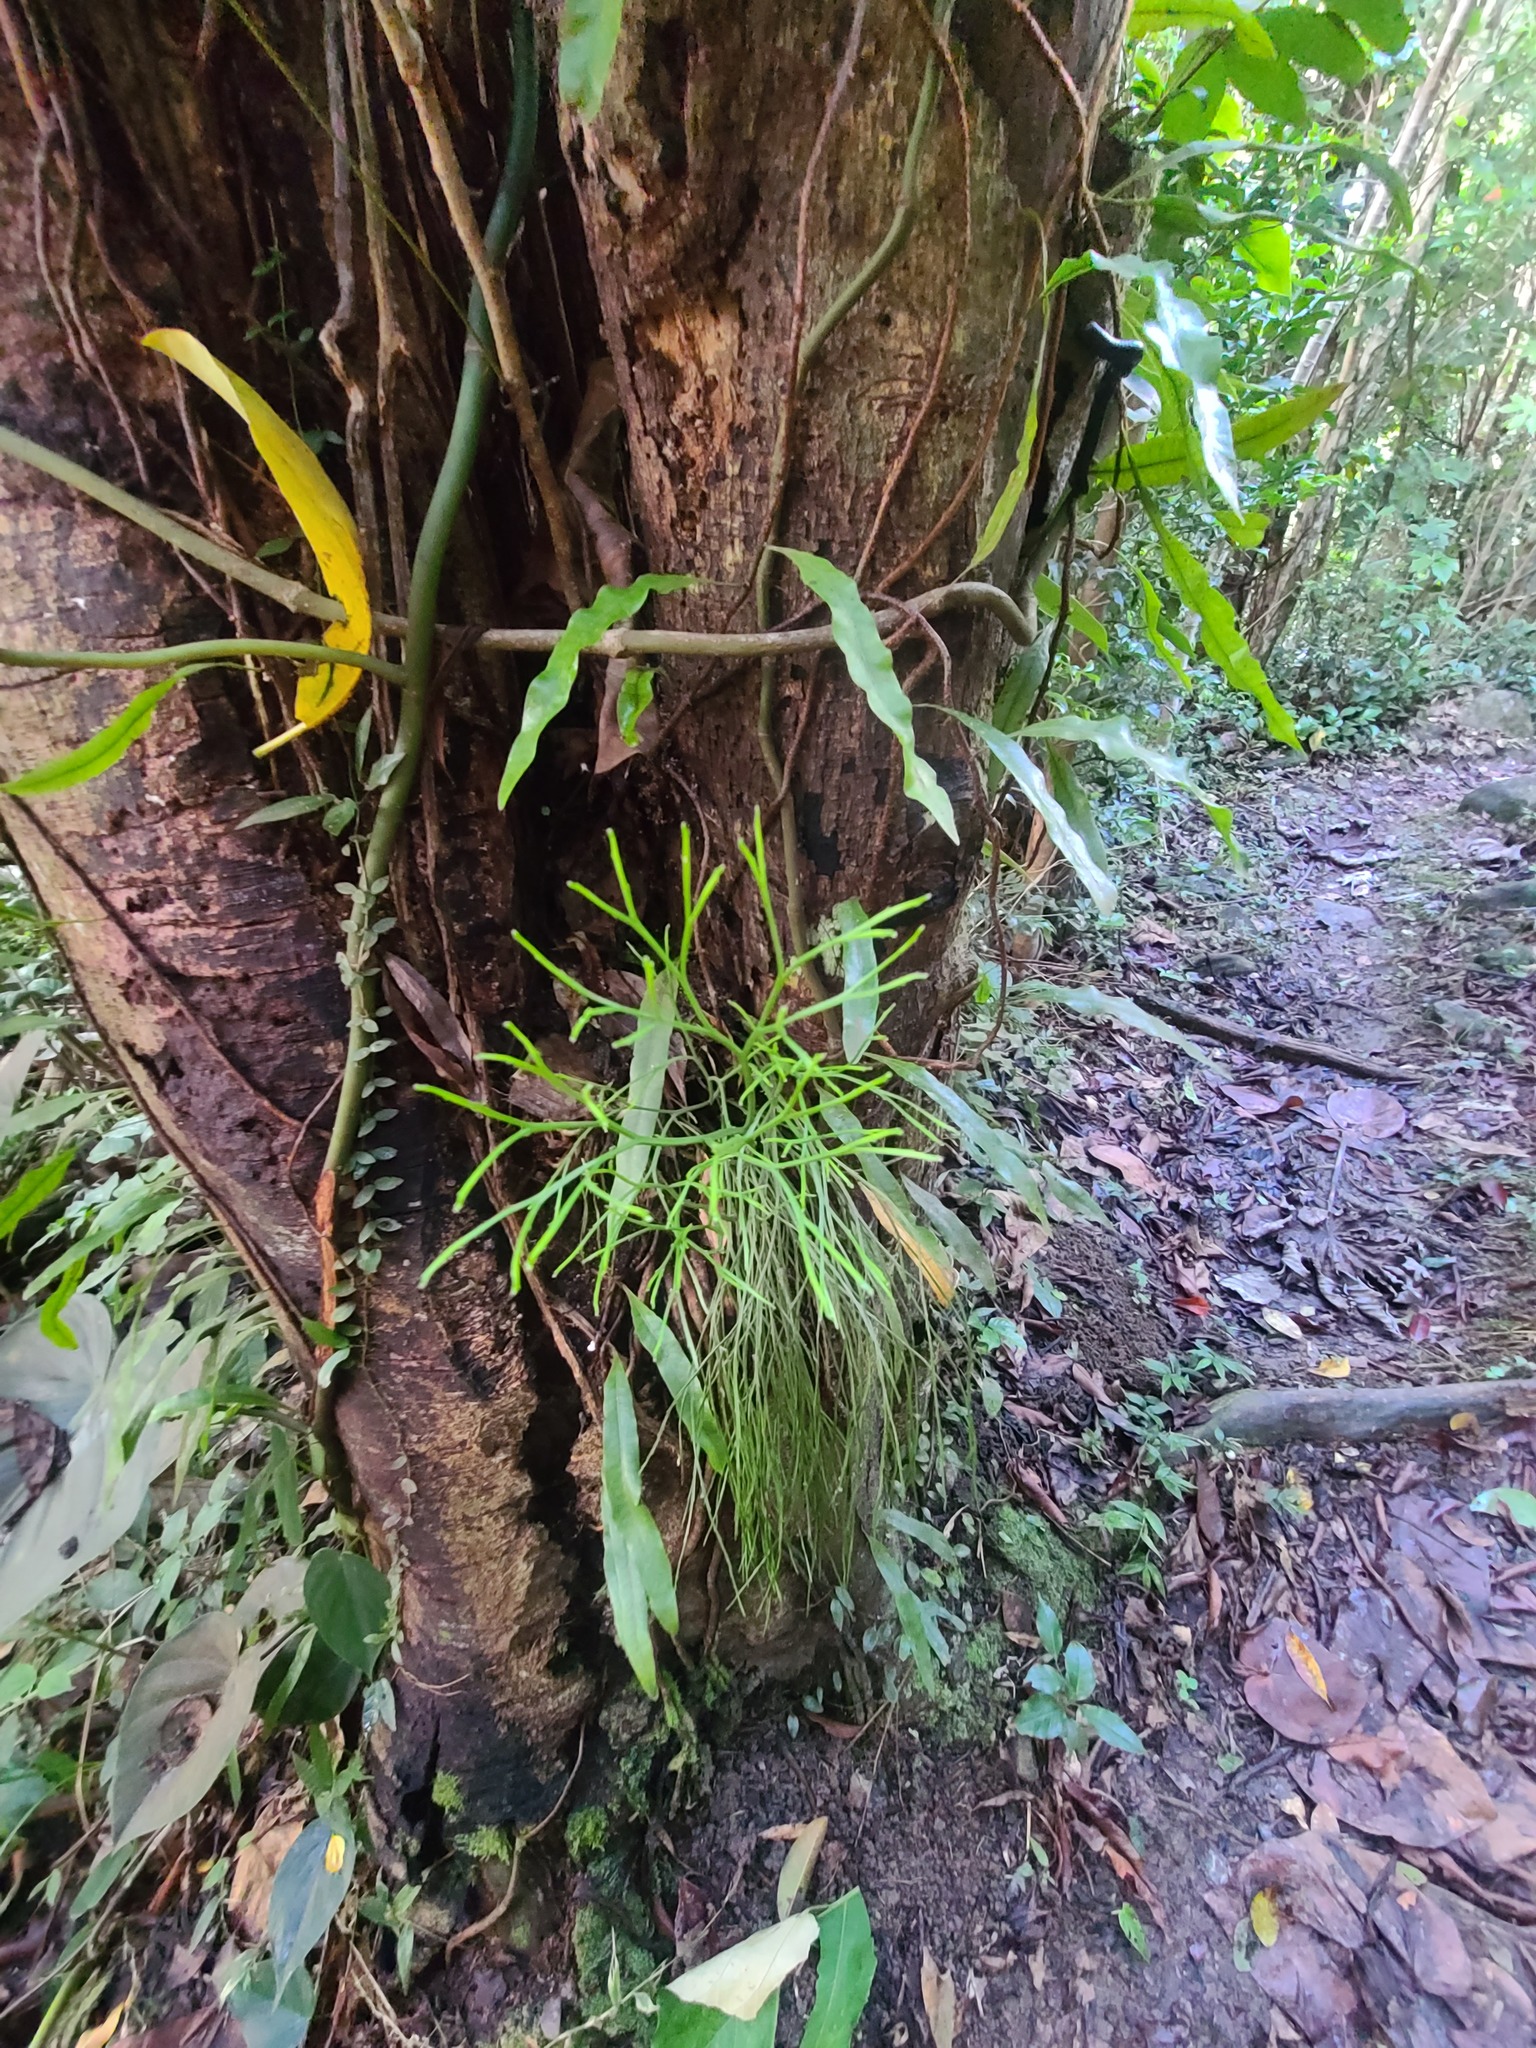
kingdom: Plantae
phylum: Tracheophyta
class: Polypodiopsida
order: Psilotales
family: Psilotaceae
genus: Psilotum
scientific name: Psilotum nudum
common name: Skeleton fork fern
